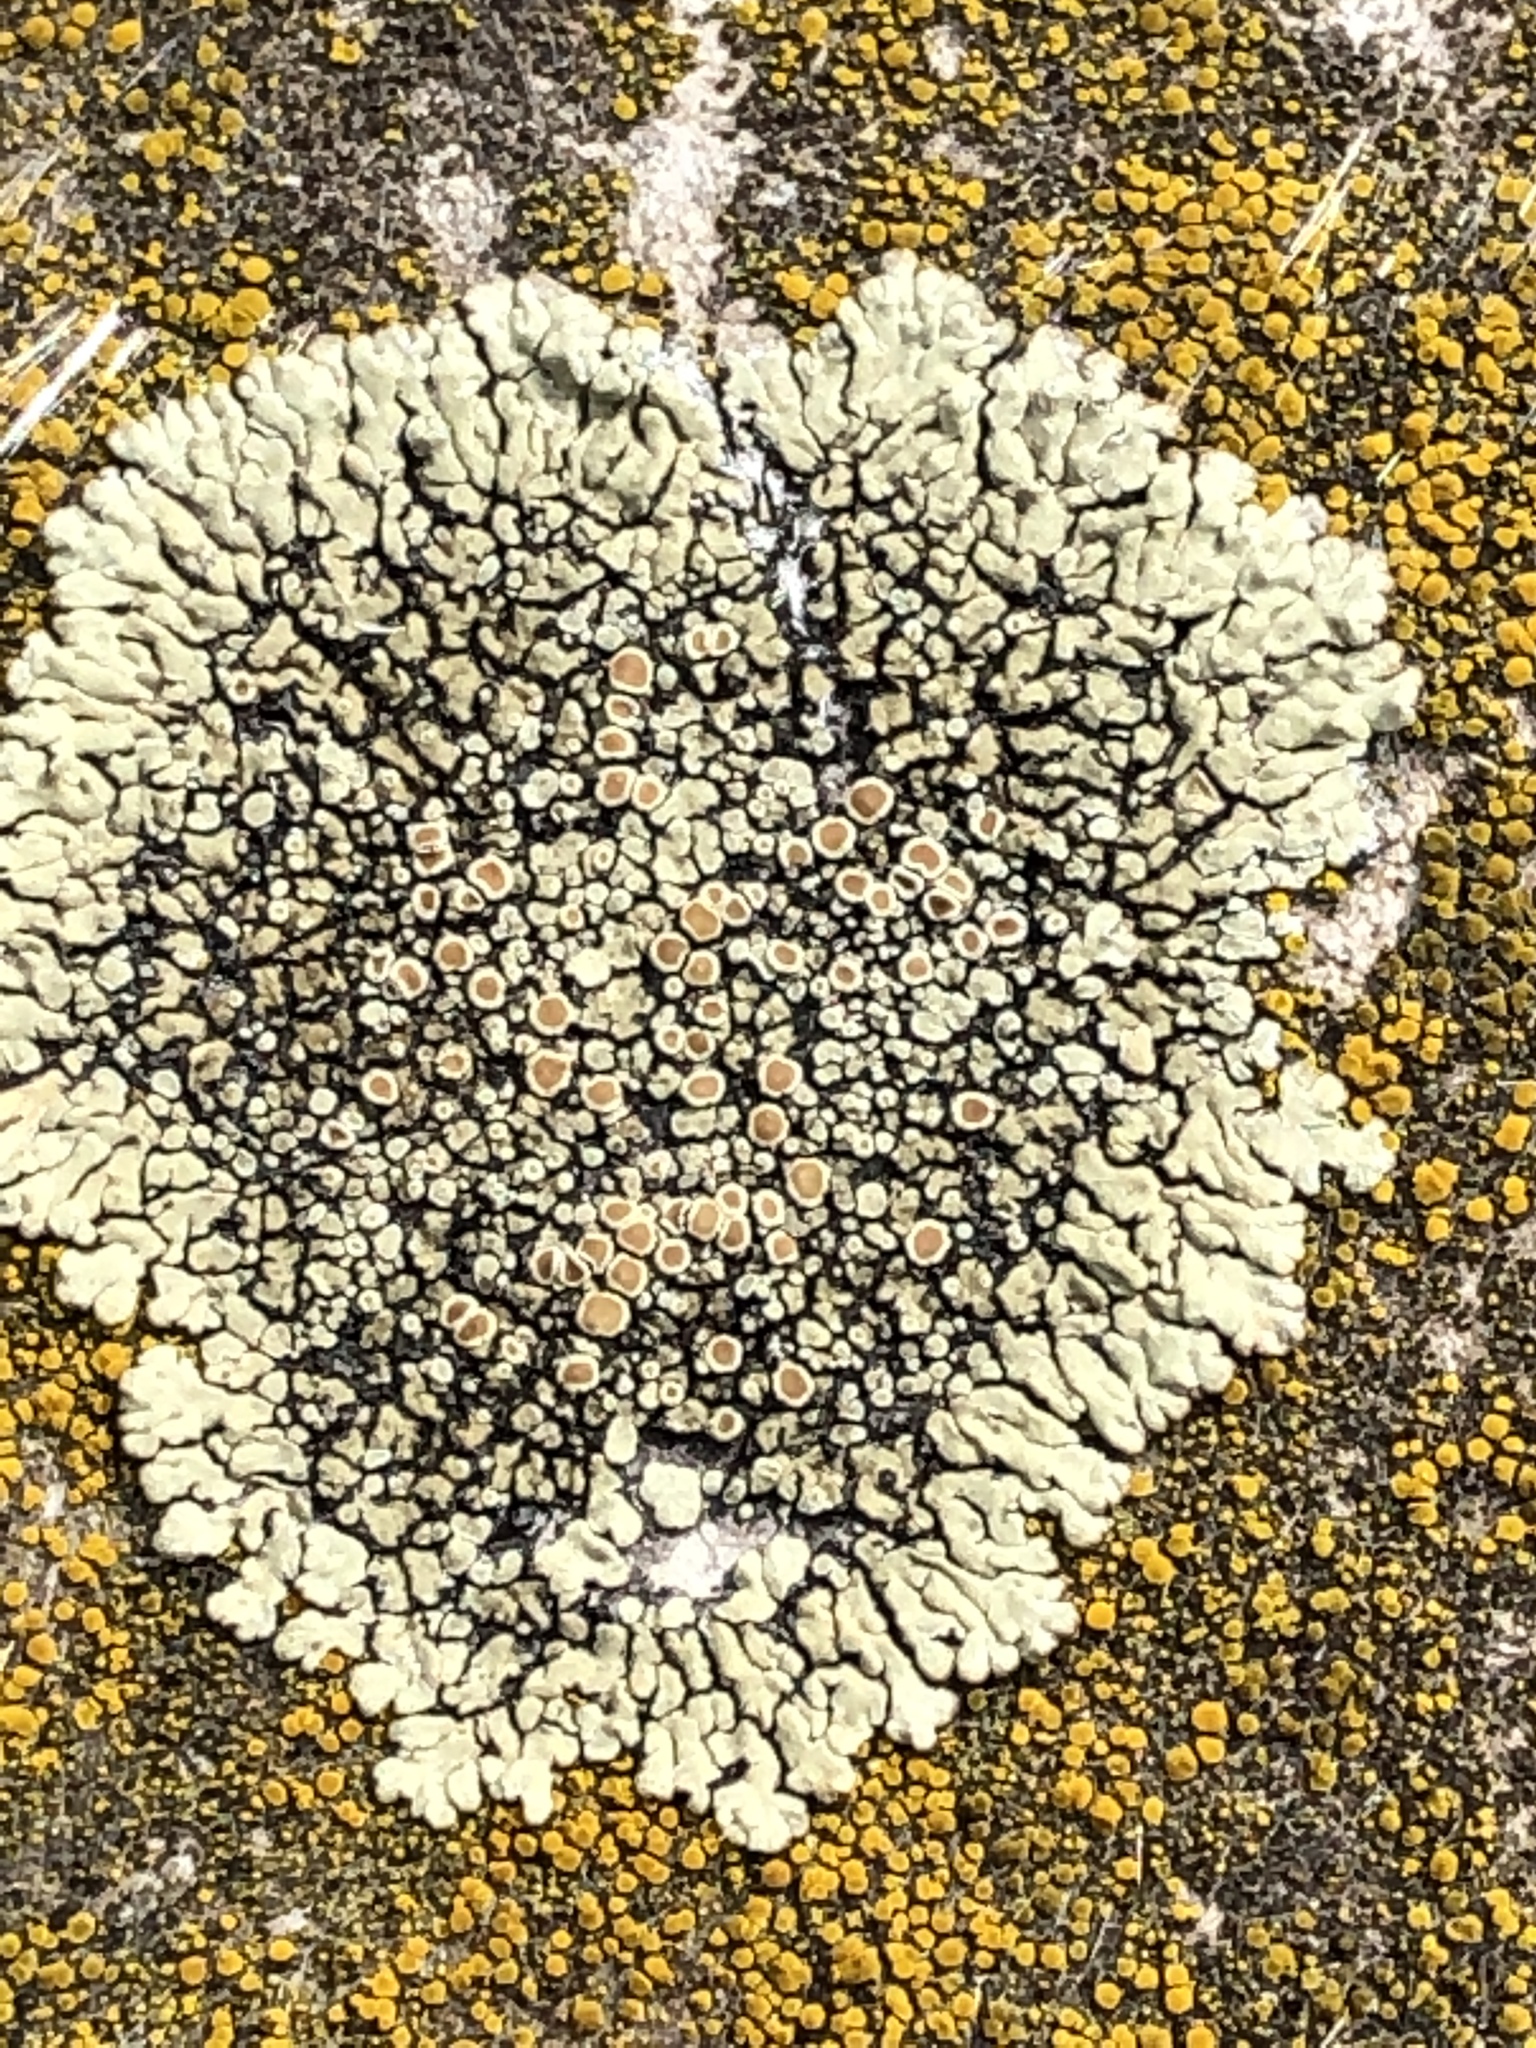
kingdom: Fungi
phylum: Ascomycota
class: Lecanoromycetes
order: Lecanorales
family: Lecanoraceae
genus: Protoparmeliopsis
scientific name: Protoparmeliopsis muralis
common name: Stonewall rim lichen
